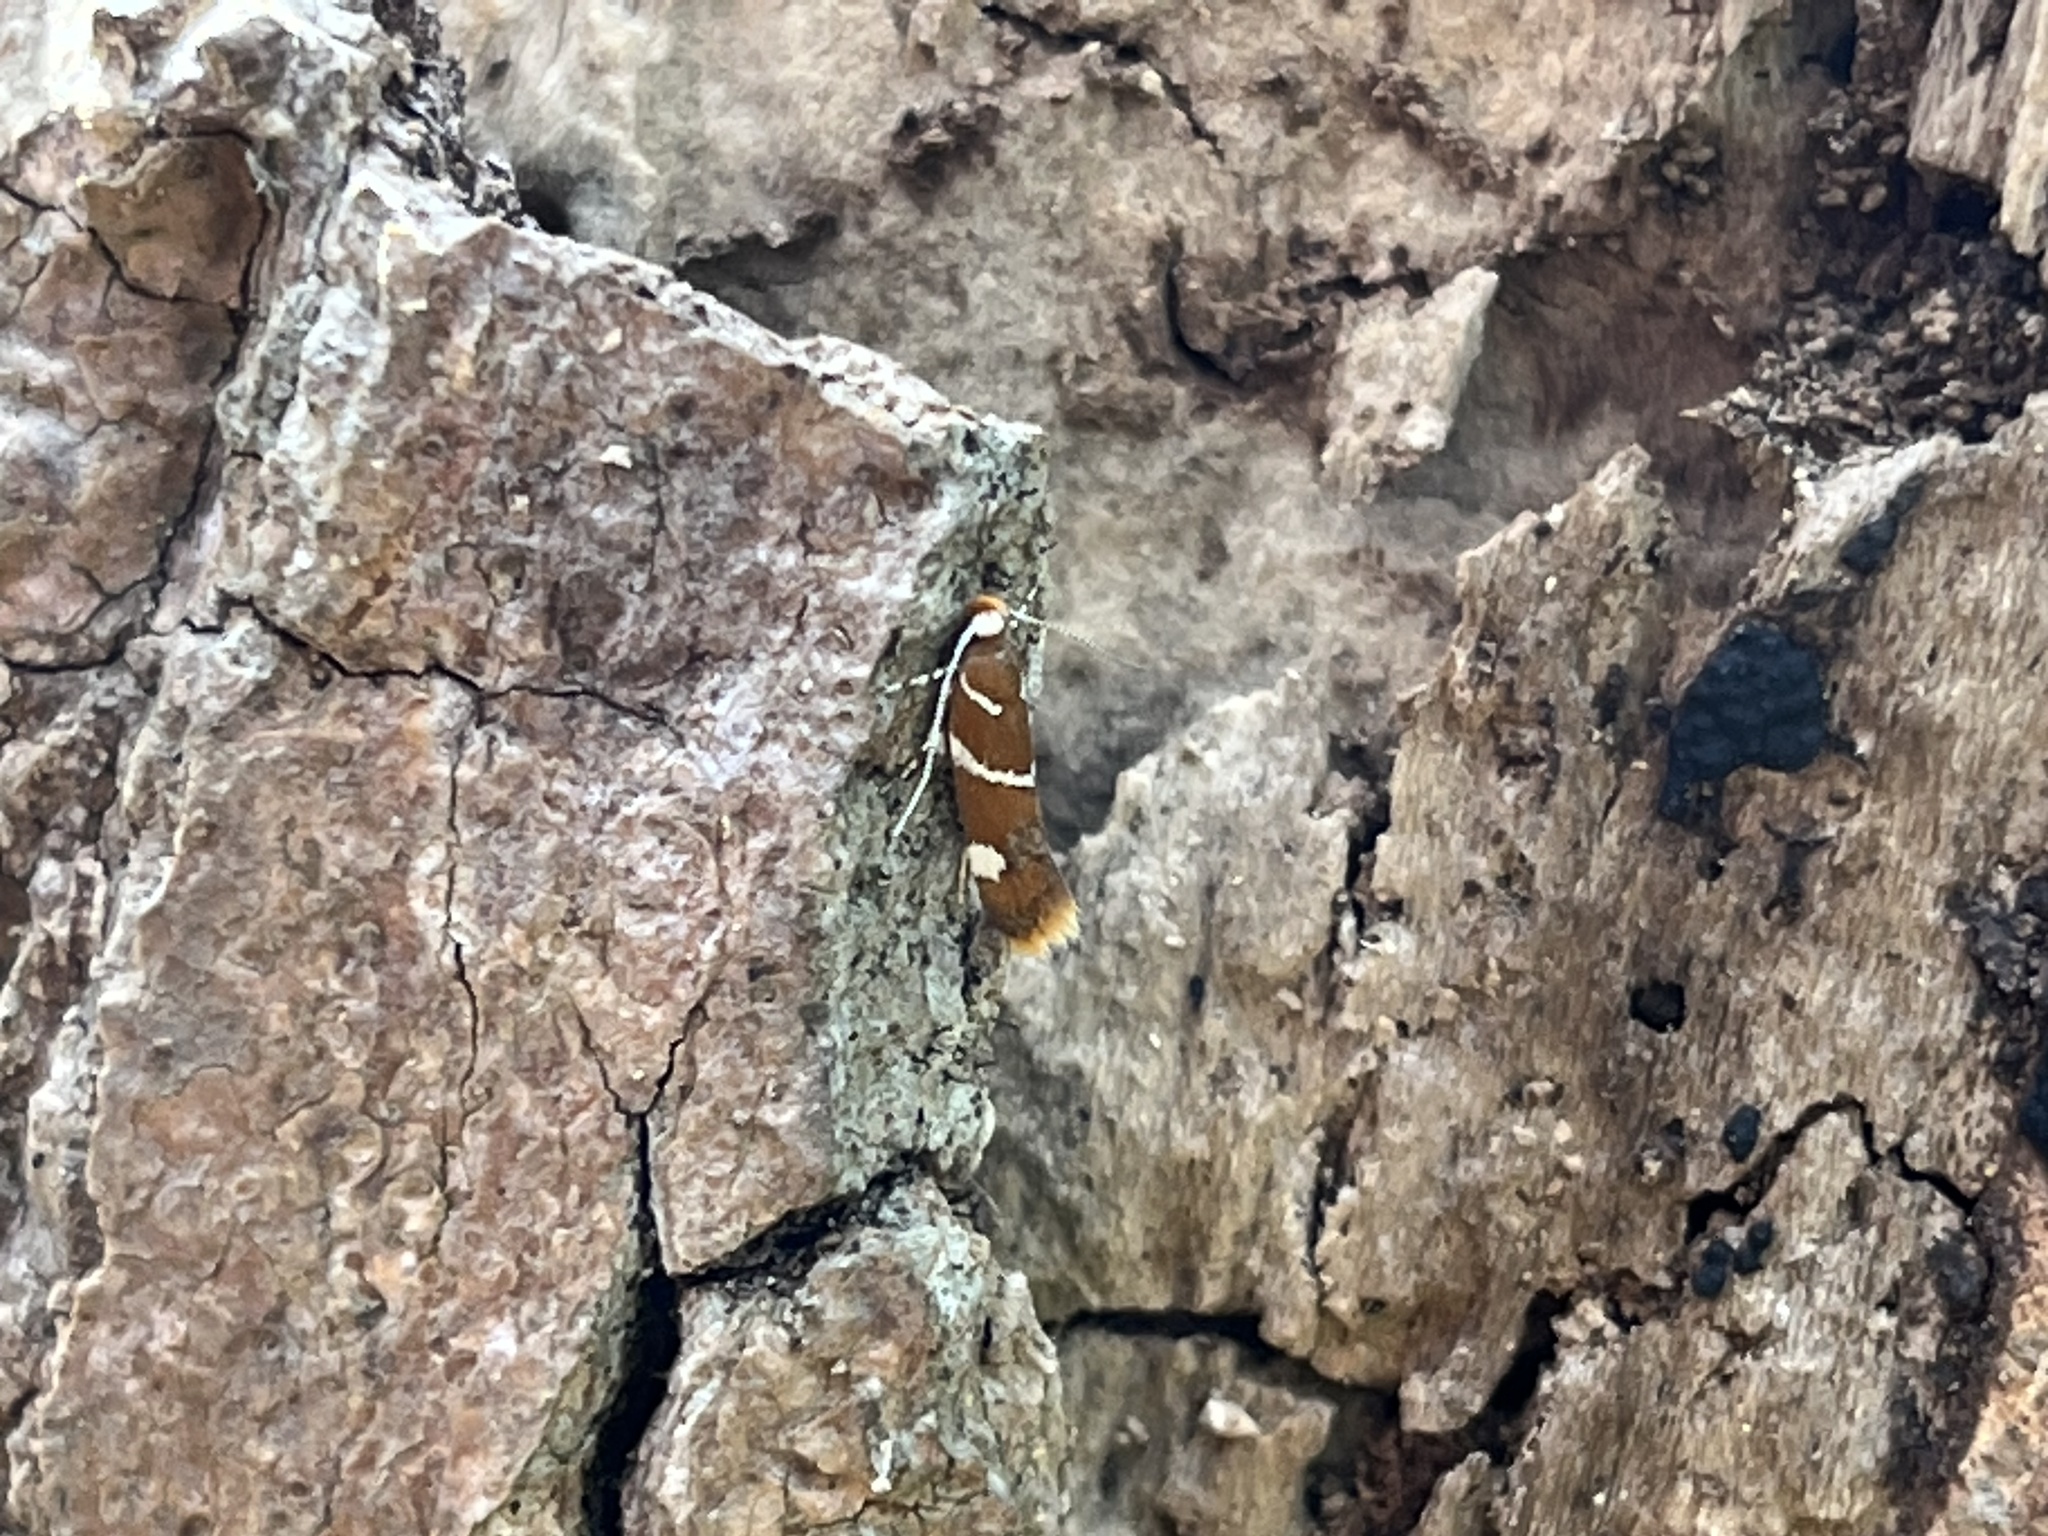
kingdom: Animalia
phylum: Arthropoda
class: Insecta
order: Lepidoptera
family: Oecophoridae
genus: Promalactis
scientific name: Promalactis suzukiella
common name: Moth
